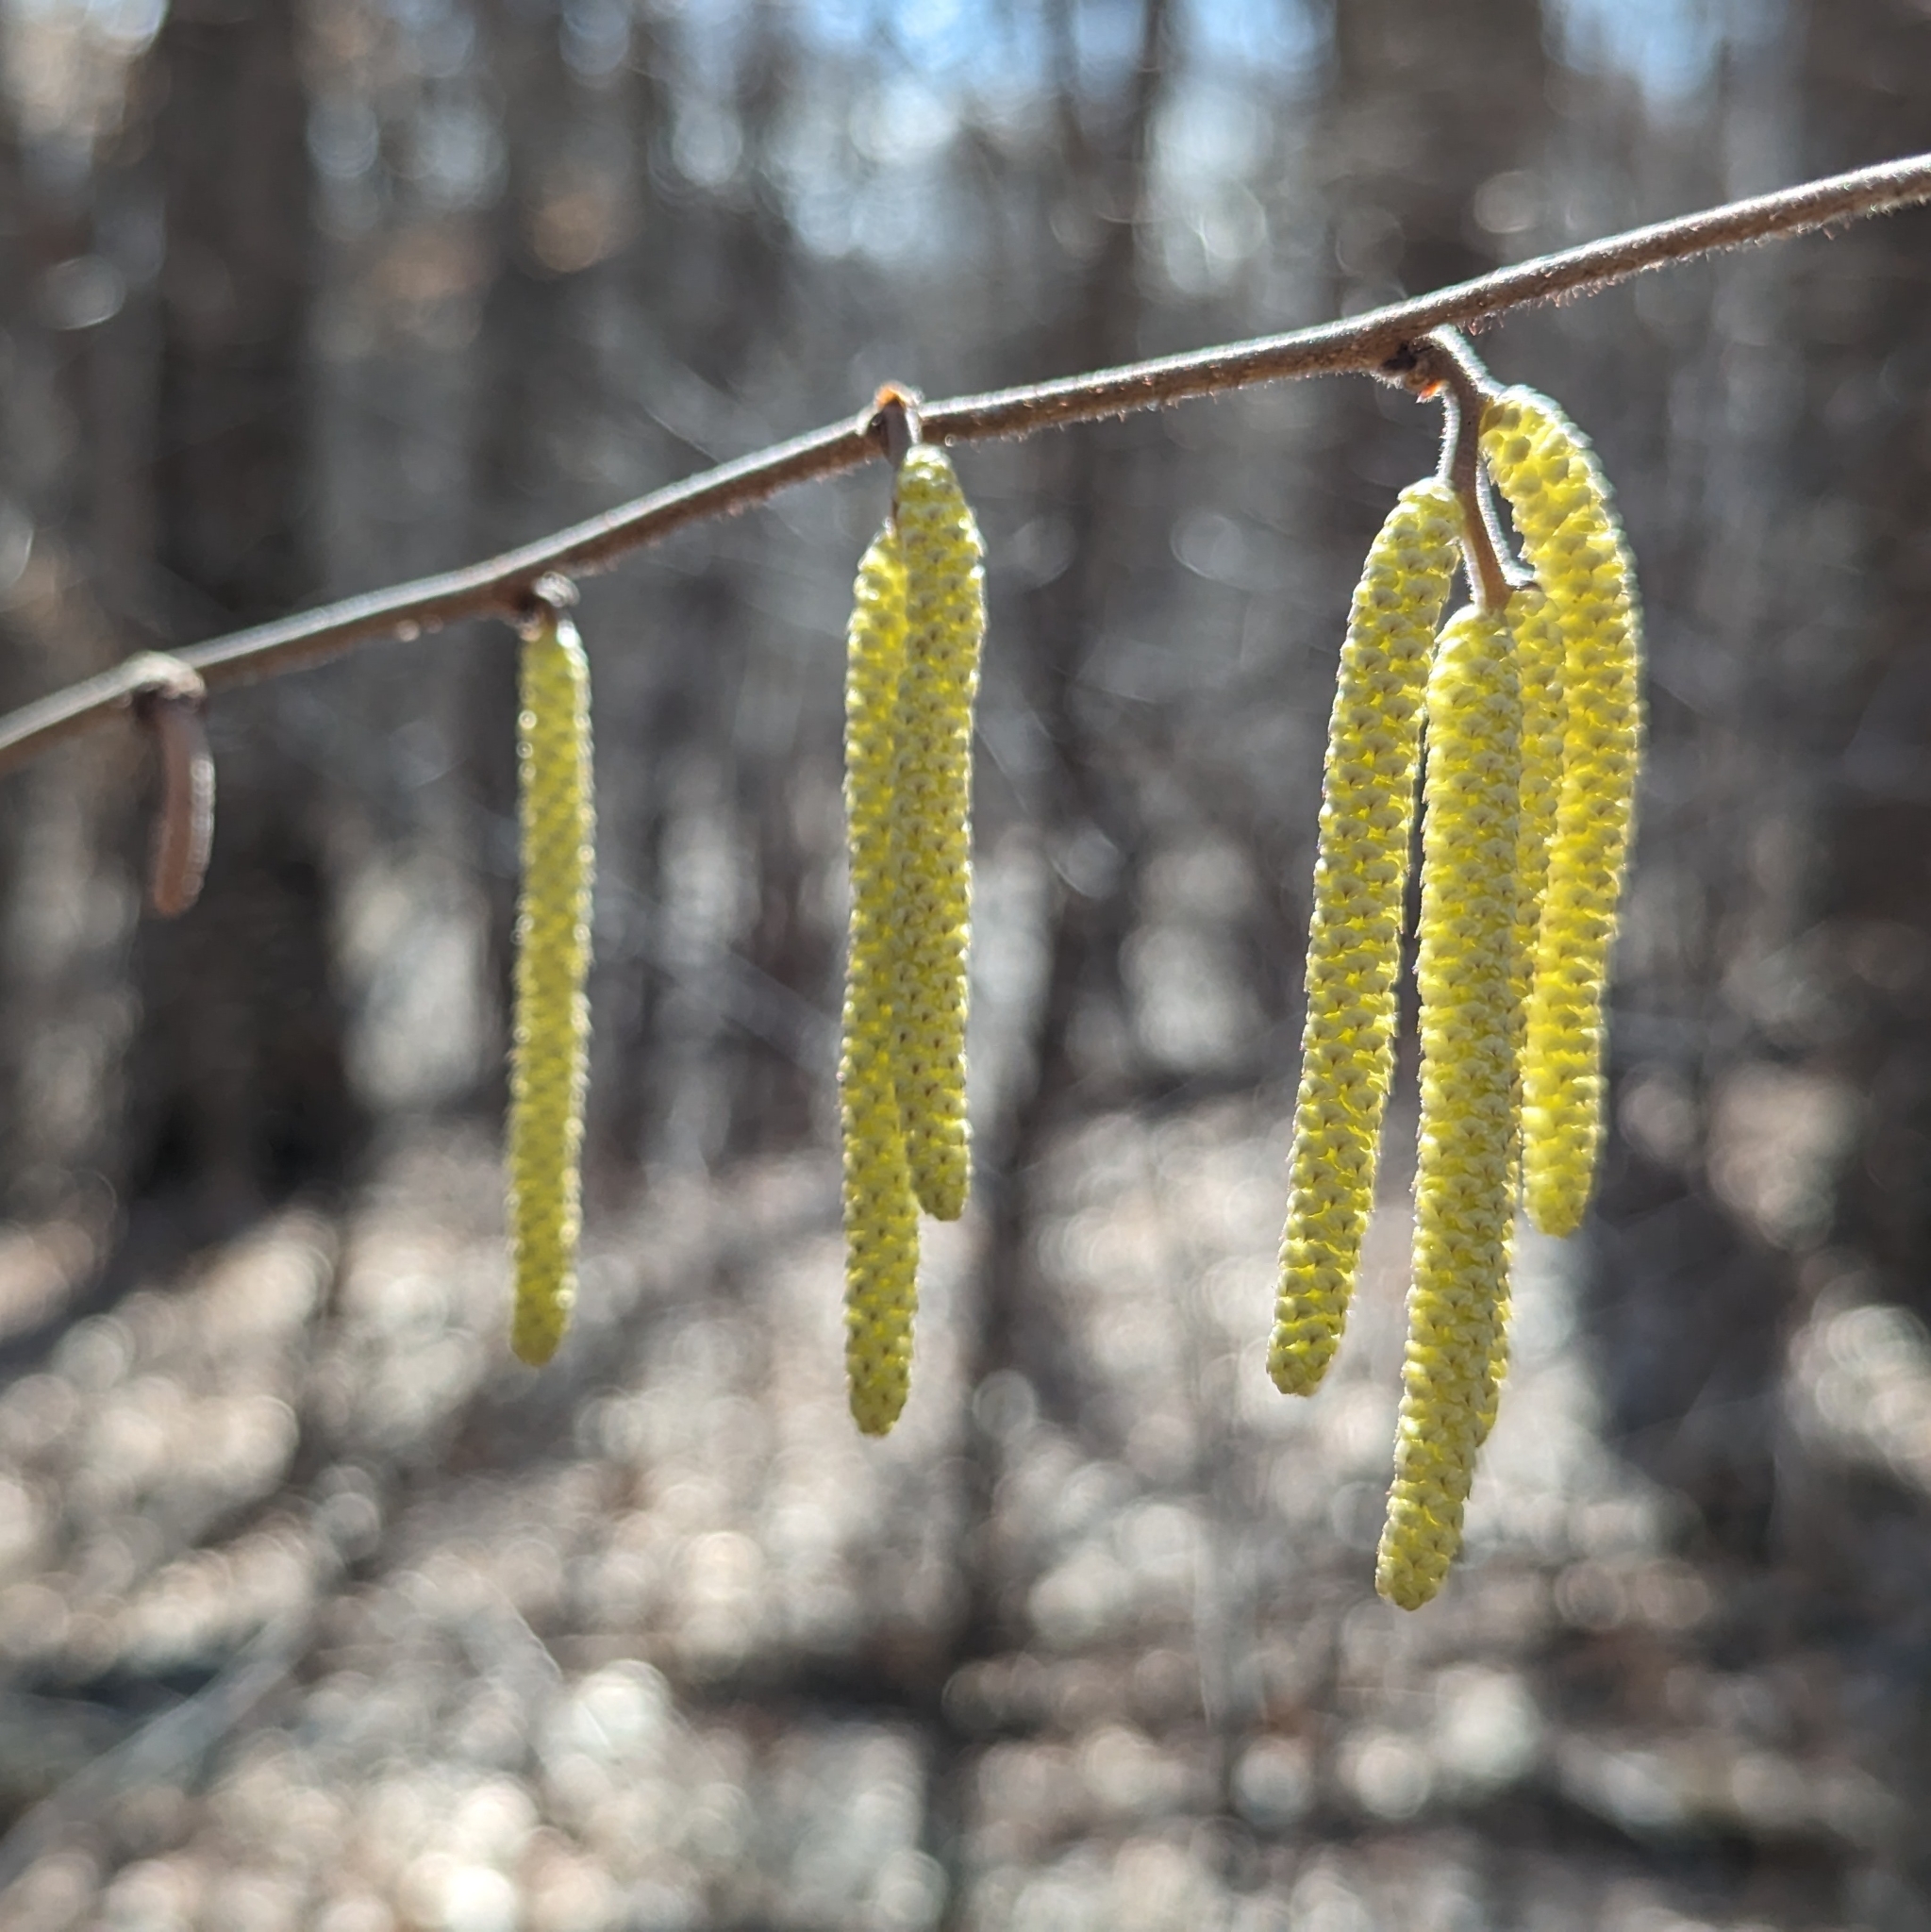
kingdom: Plantae
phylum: Tracheophyta
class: Magnoliopsida
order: Fagales
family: Betulaceae
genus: Corylus
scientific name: Corylus americana
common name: American hazel
